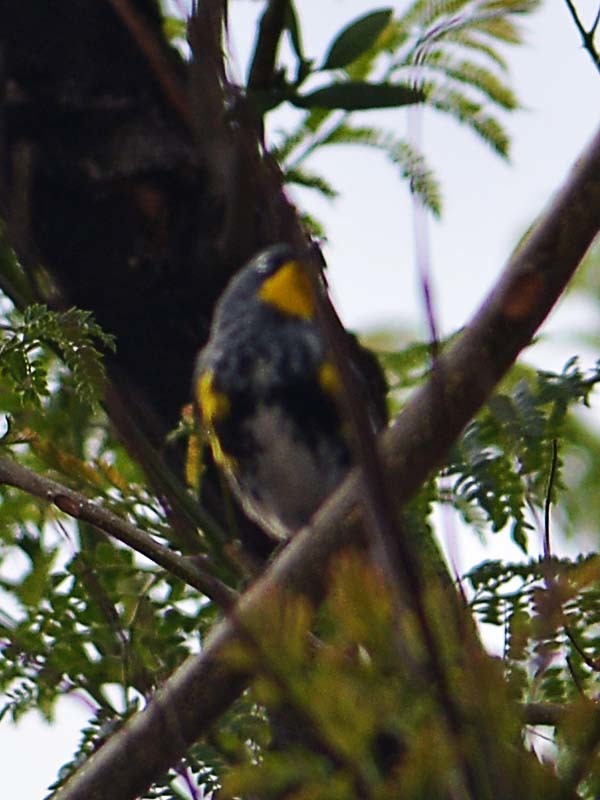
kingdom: Animalia
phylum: Chordata
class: Aves
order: Passeriformes
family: Parulidae
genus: Setophaga
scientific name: Setophaga auduboni
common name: Audubon's warbler
